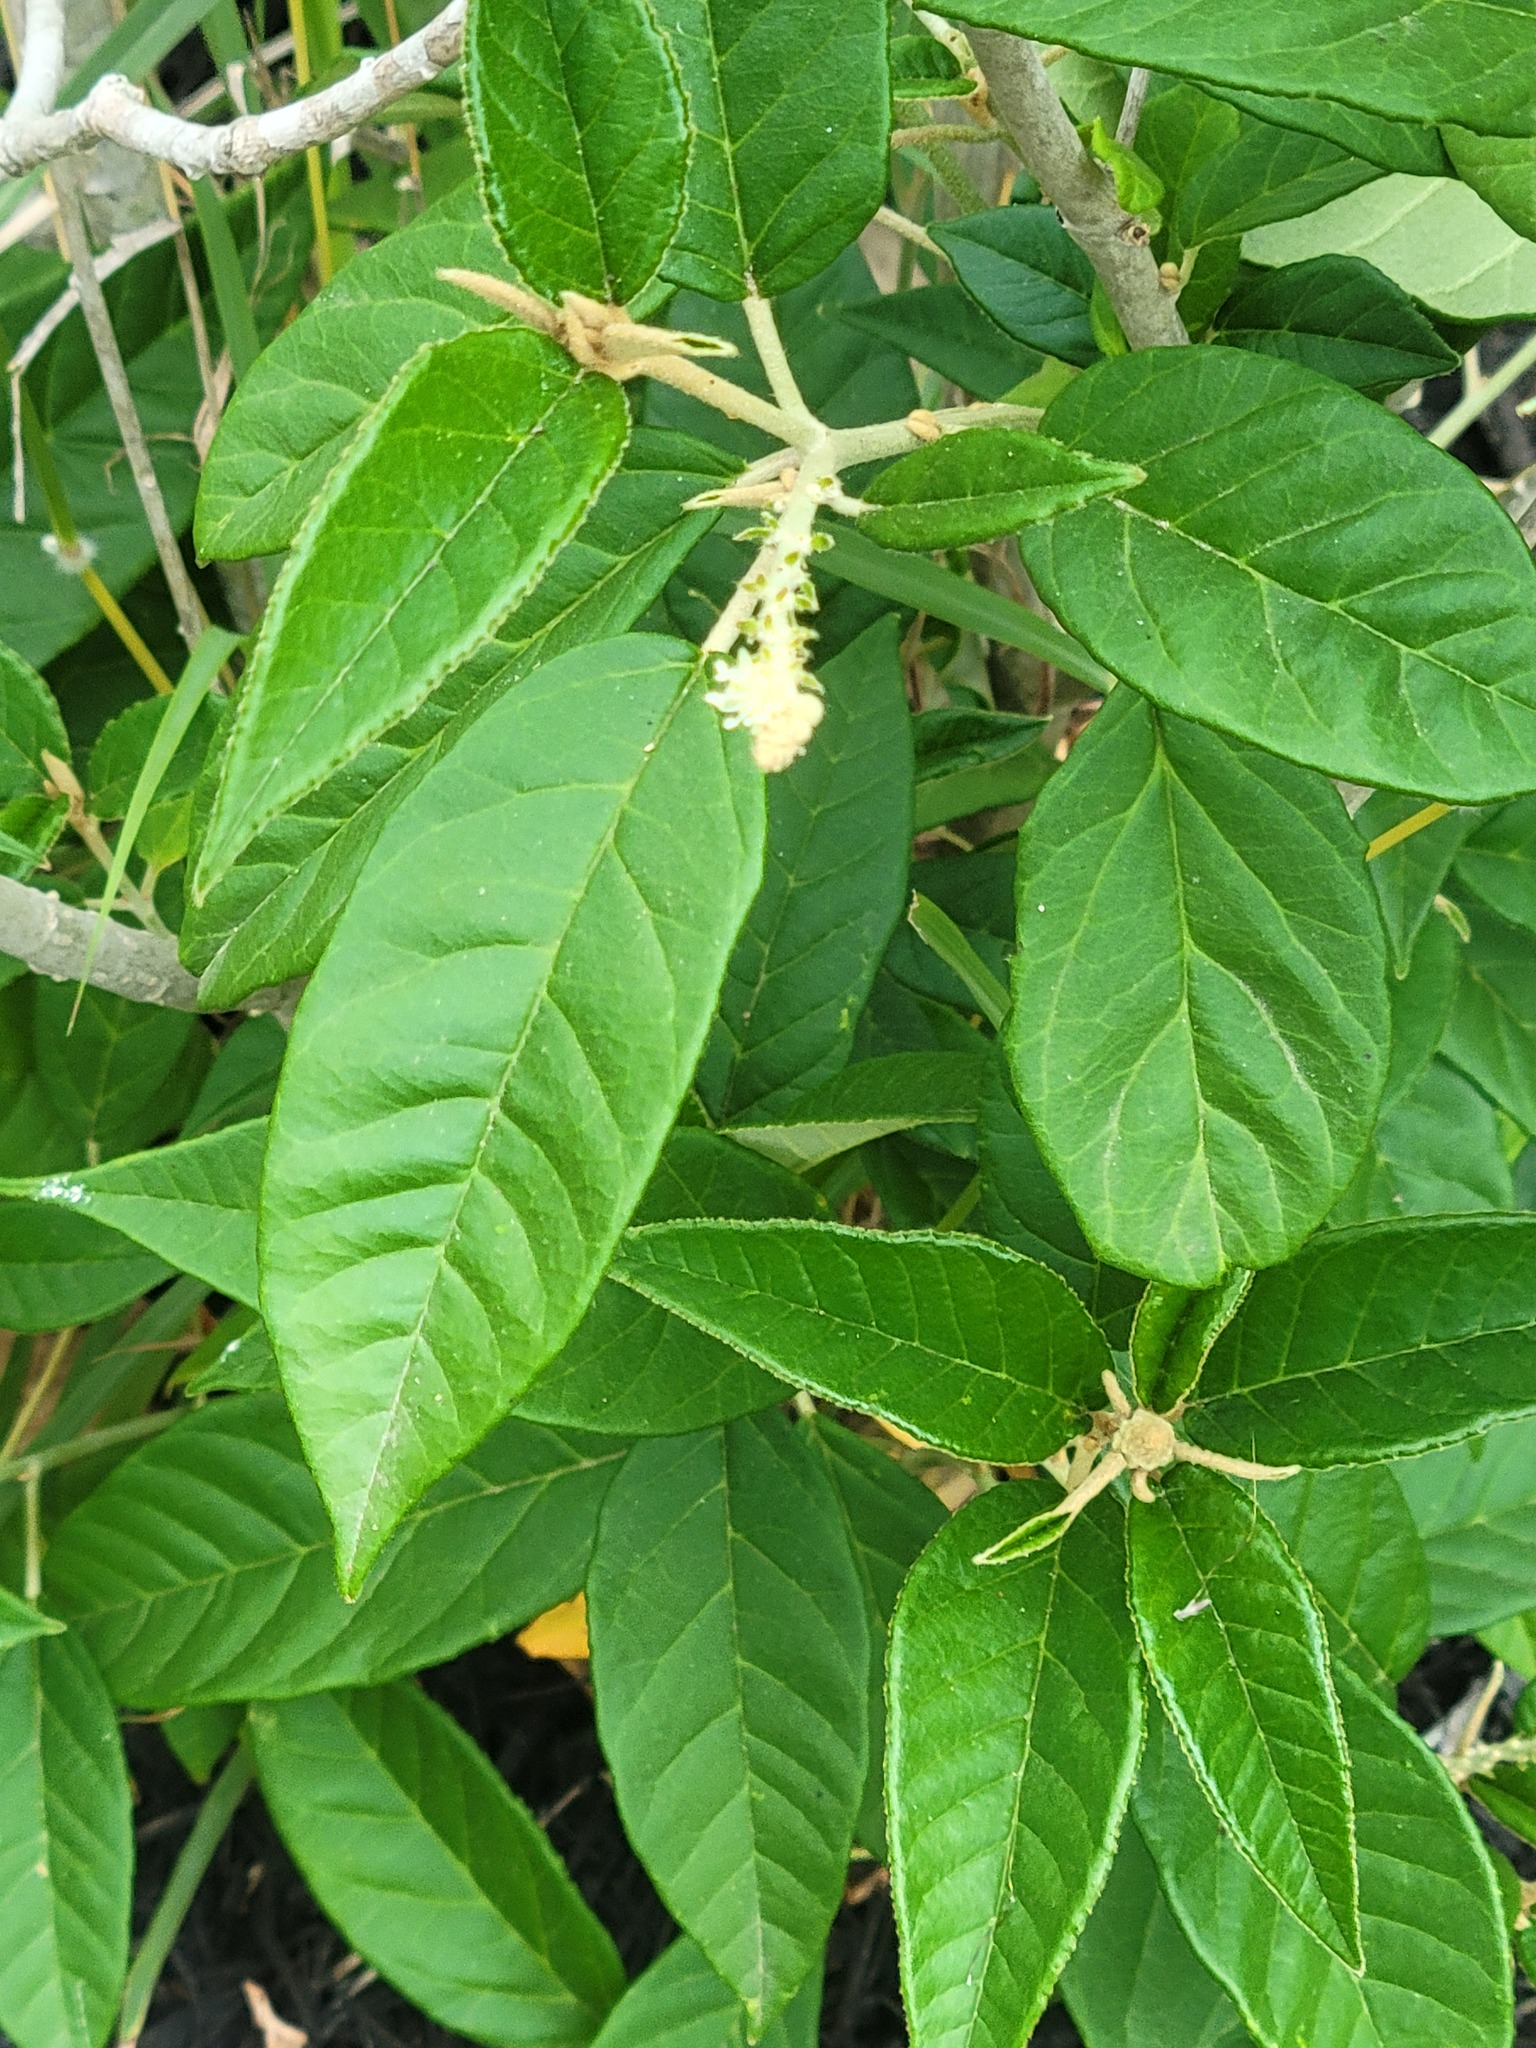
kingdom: Plantae
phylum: Tracheophyta
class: Magnoliopsida
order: Malpighiales
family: Euphorbiaceae
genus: Croton
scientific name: Croton cortesianus
